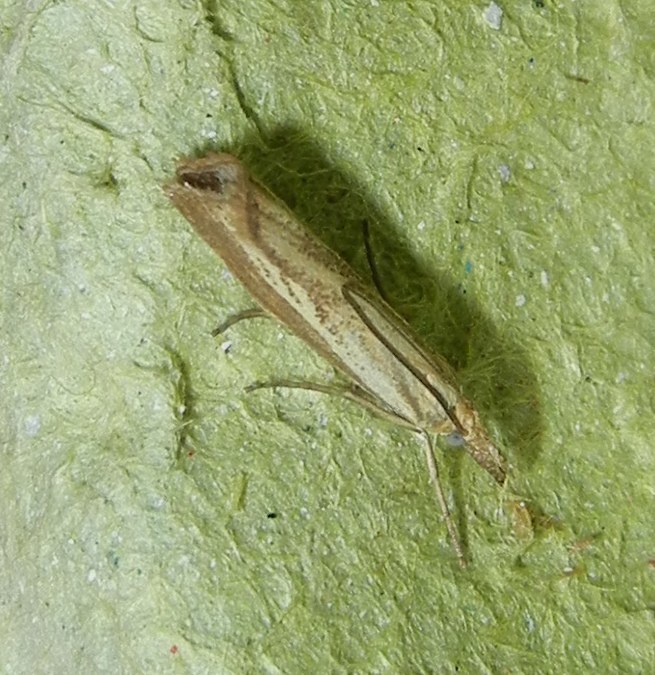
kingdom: Animalia
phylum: Arthropoda
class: Insecta
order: Lepidoptera
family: Crambidae
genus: Agriphila
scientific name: Agriphila straminella
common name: Straw grass-veneer
